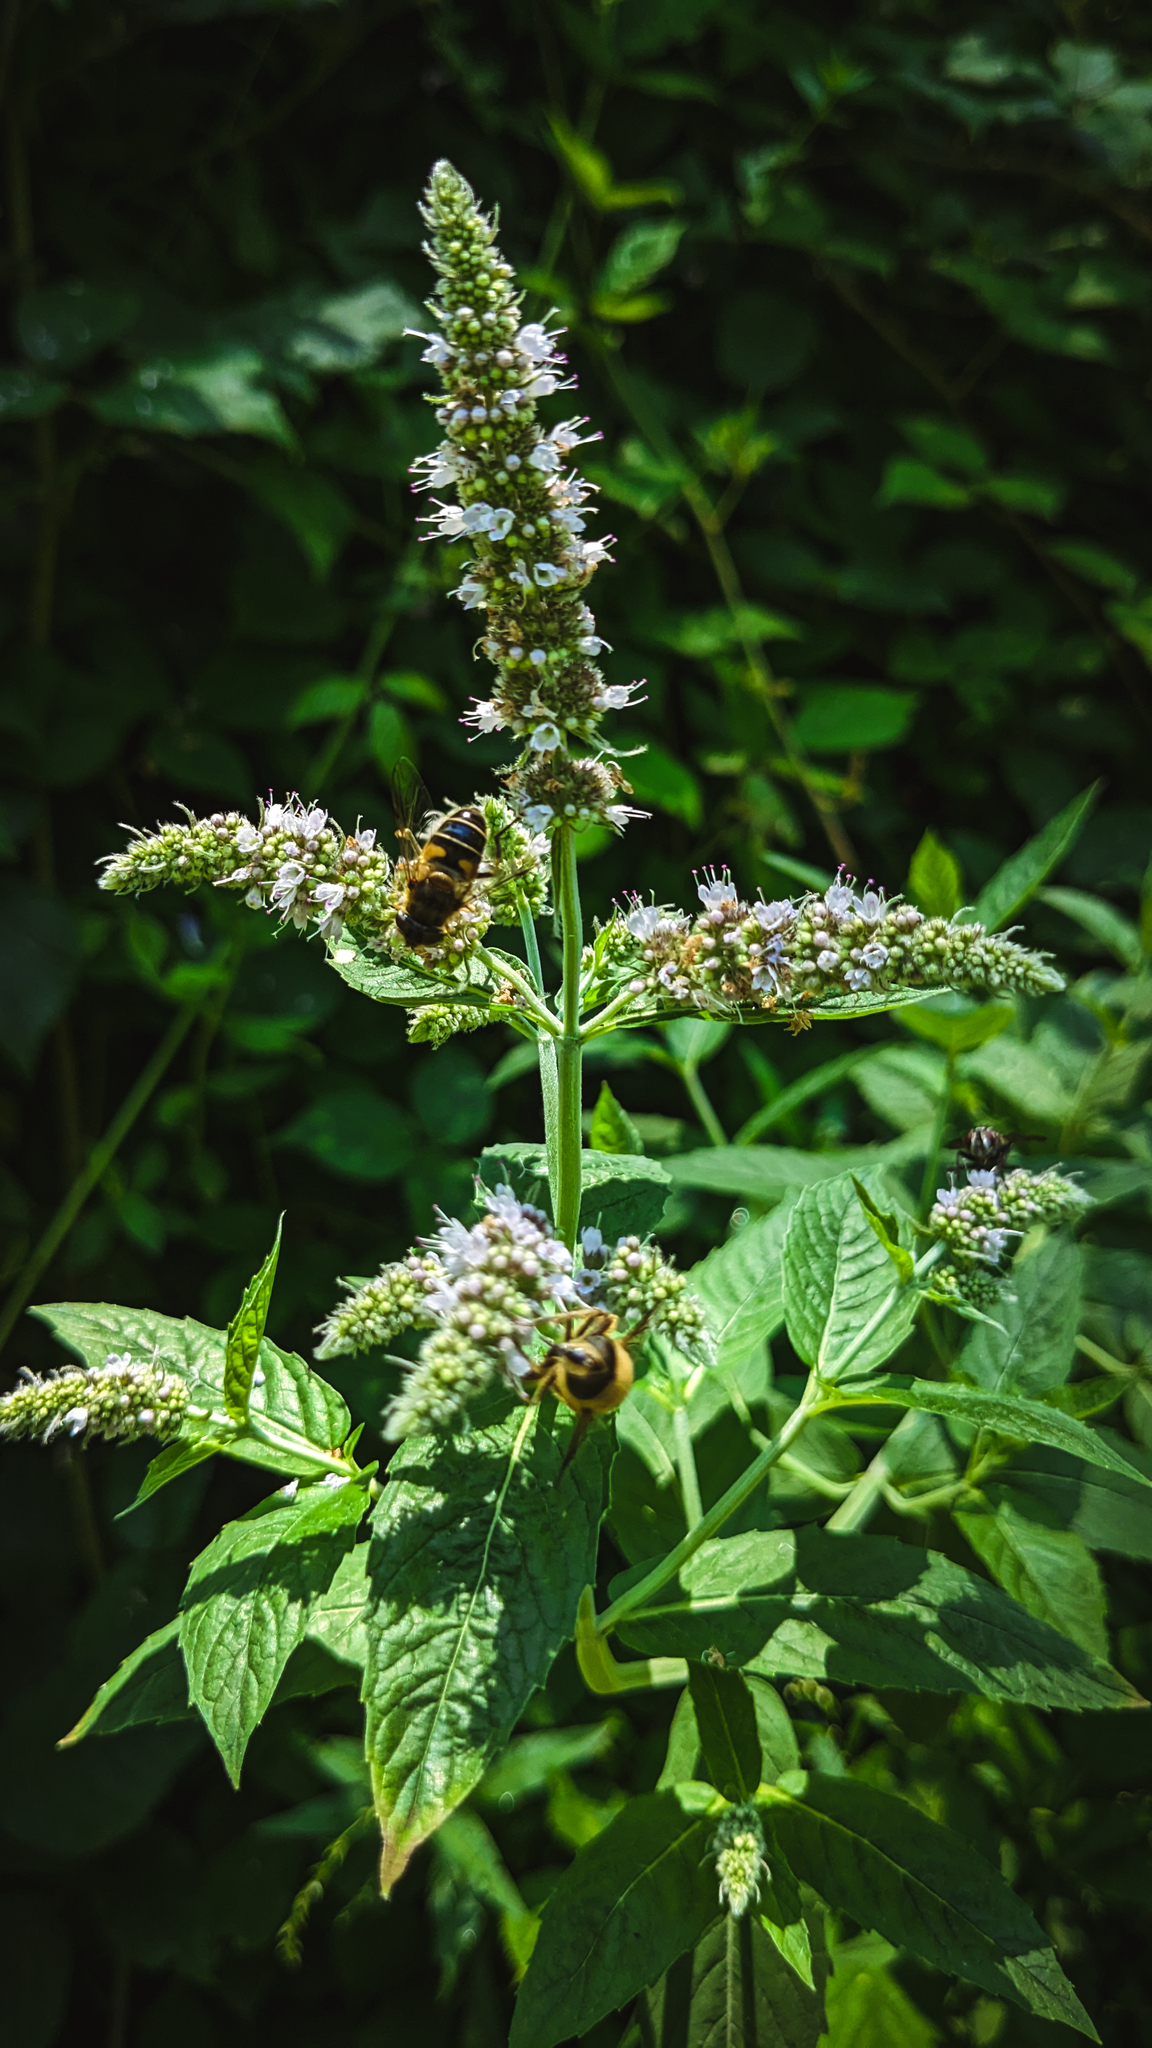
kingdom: Plantae
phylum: Tracheophyta
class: Magnoliopsida
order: Lamiales
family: Lamiaceae
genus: Mentha
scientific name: Mentha longifolia
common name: Horse mint
